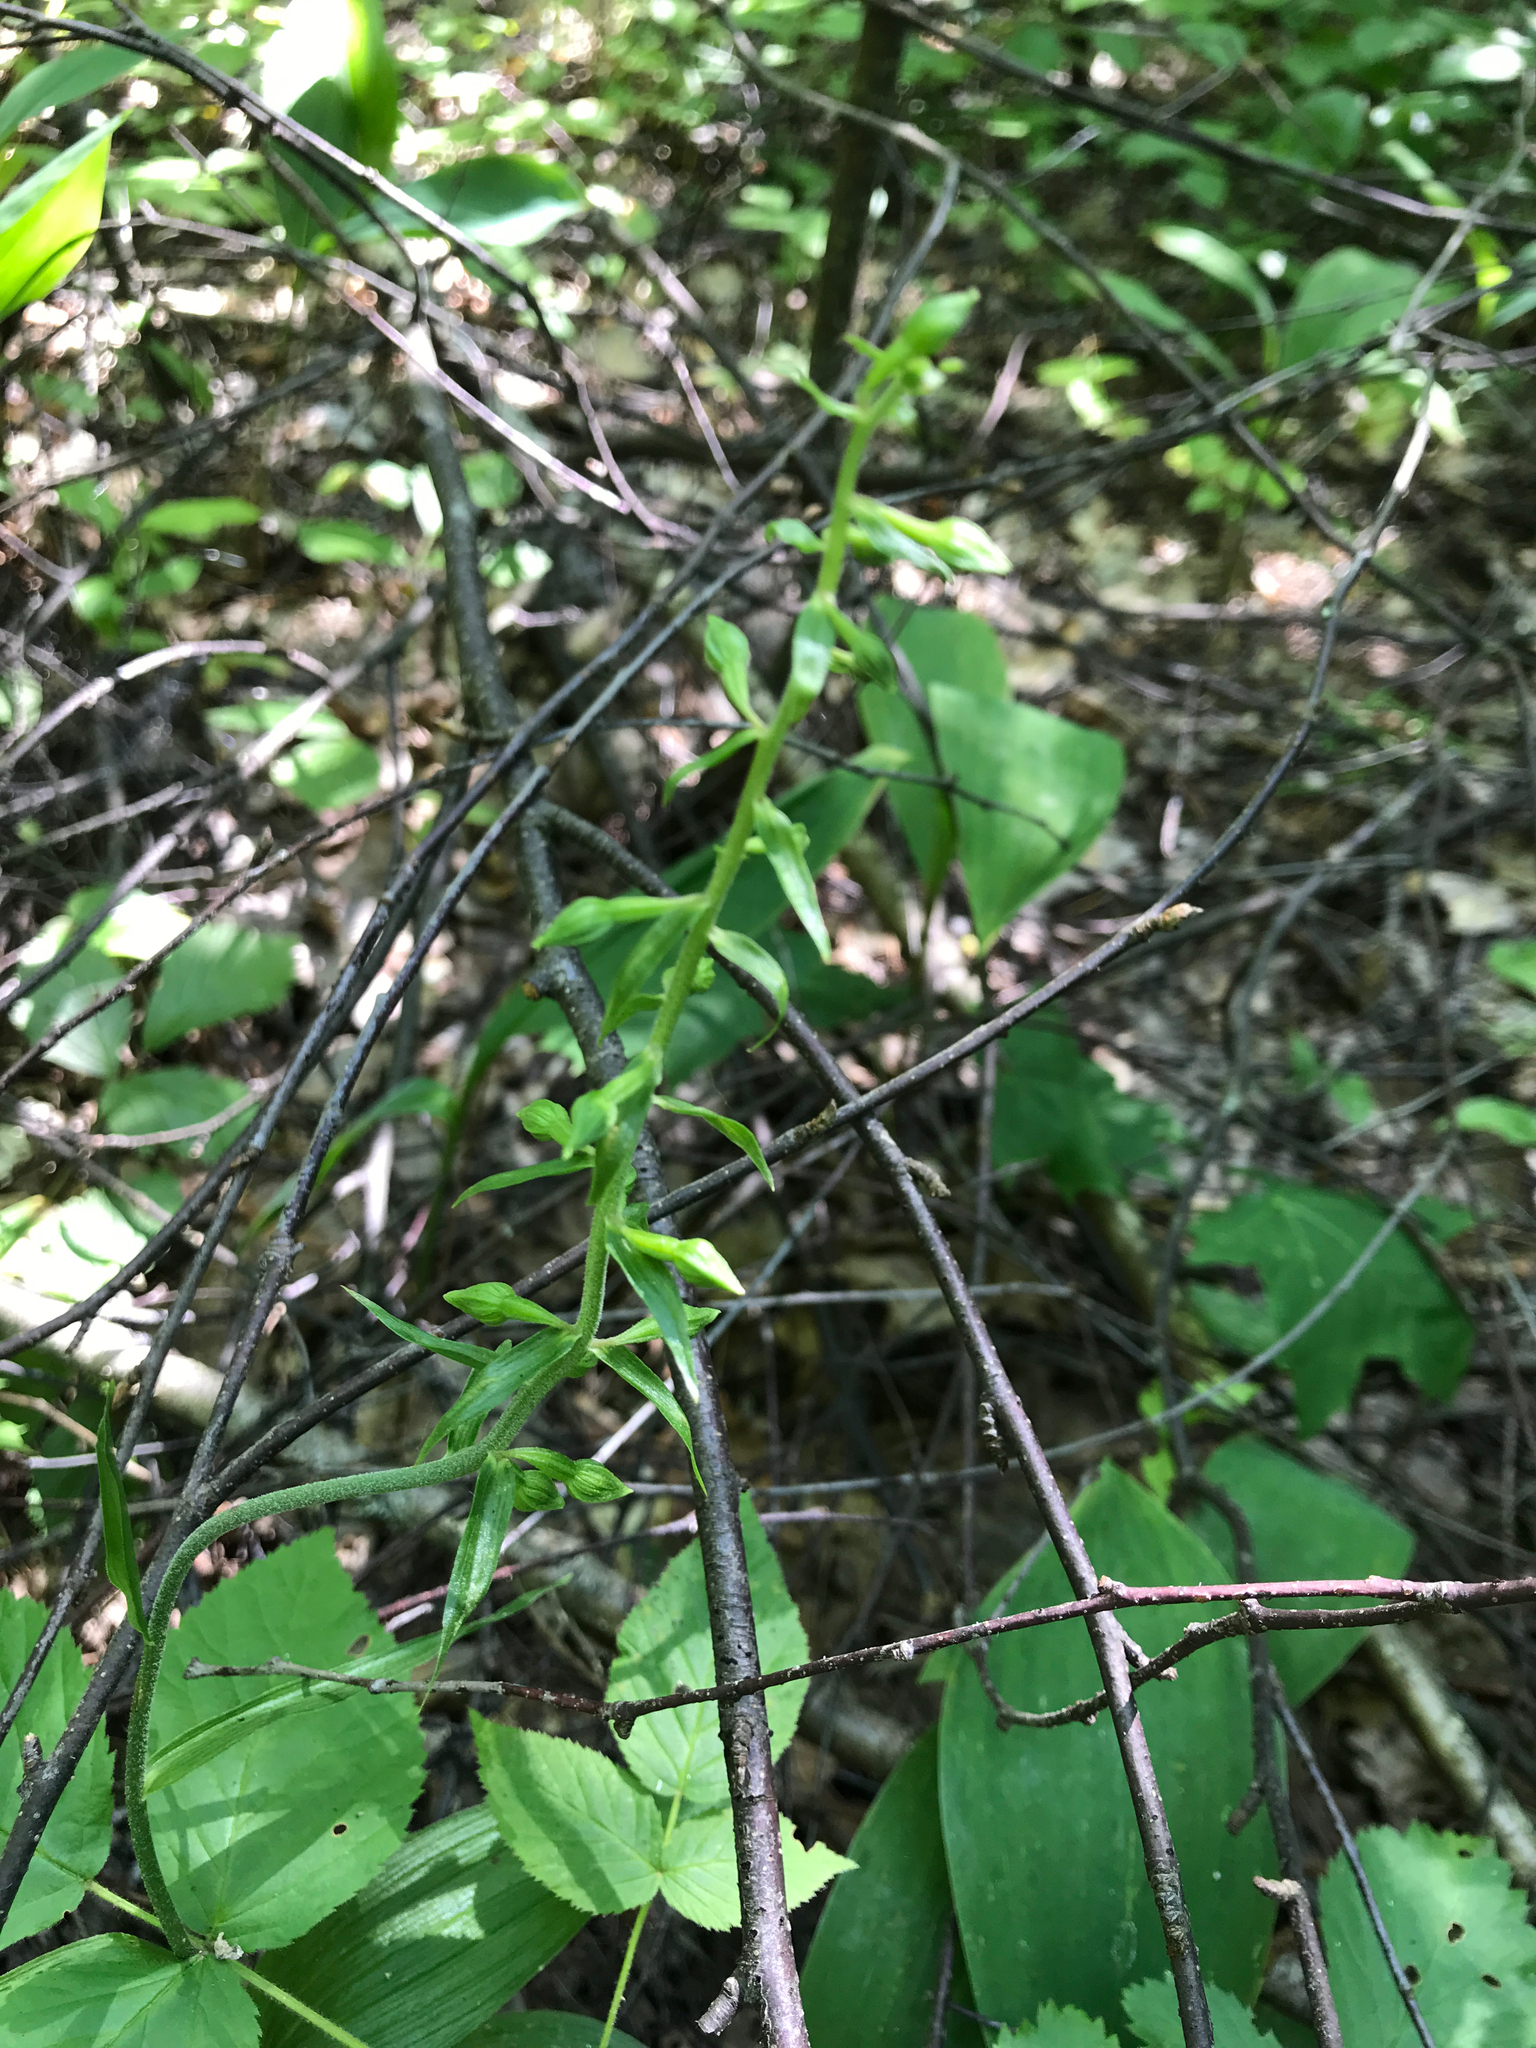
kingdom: Plantae
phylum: Tracheophyta
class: Liliopsida
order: Asparagales
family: Orchidaceae
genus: Epipactis
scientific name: Epipactis helleborine
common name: Broad-leaved helleborine
